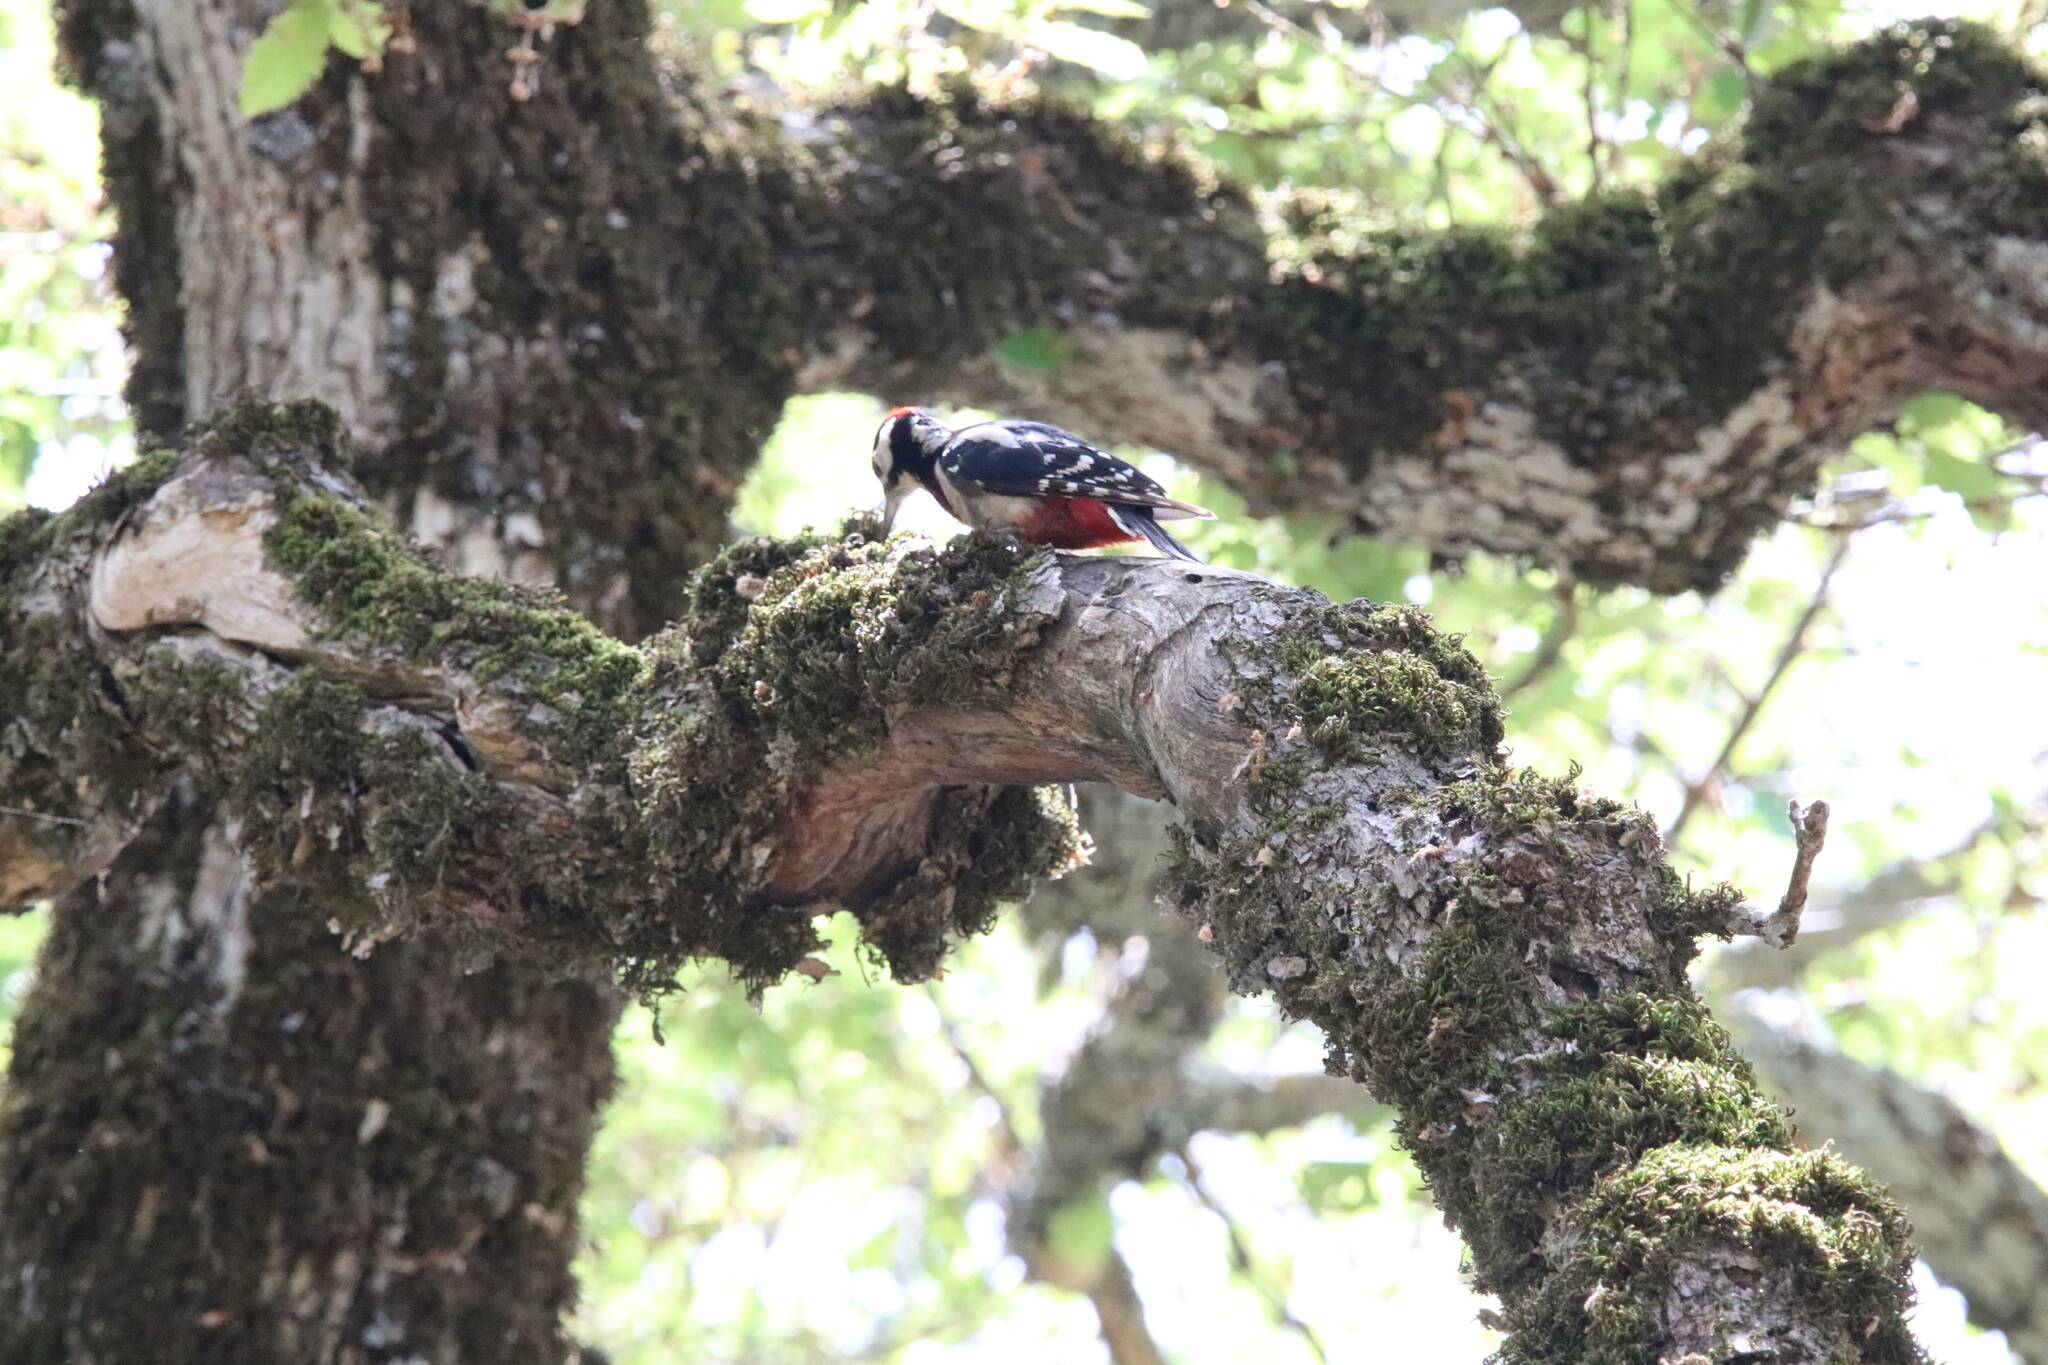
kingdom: Animalia
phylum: Chordata
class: Aves
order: Piciformes
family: Picidae
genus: Dendrocopos
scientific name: Dendrocopos major
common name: Great spotted woodpecker
